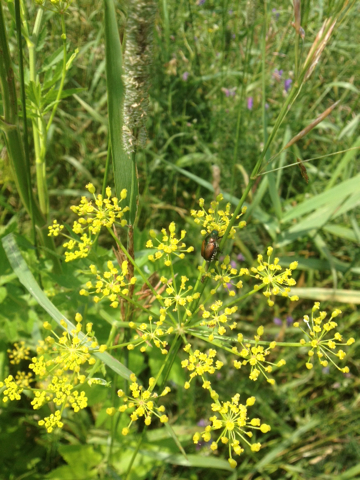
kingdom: Animalia
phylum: Arthropoda
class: Insecta
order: Coleoptera
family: Scarabaeidae
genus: Popillia
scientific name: Popillia japonica
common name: Japanese beetle
